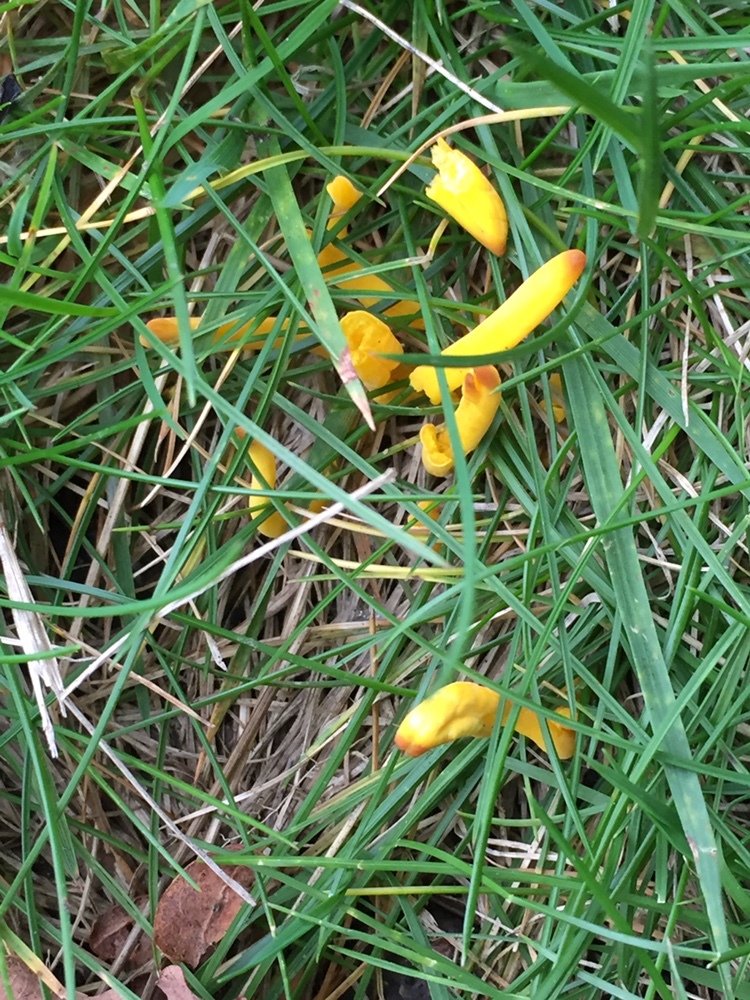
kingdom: Fungi
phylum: Basidiomycota
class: Agaricomycetes
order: Agaricales
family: Clavariaceae
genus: Clavulinopsis
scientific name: Clavulinopsis helvola
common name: Yellow club
